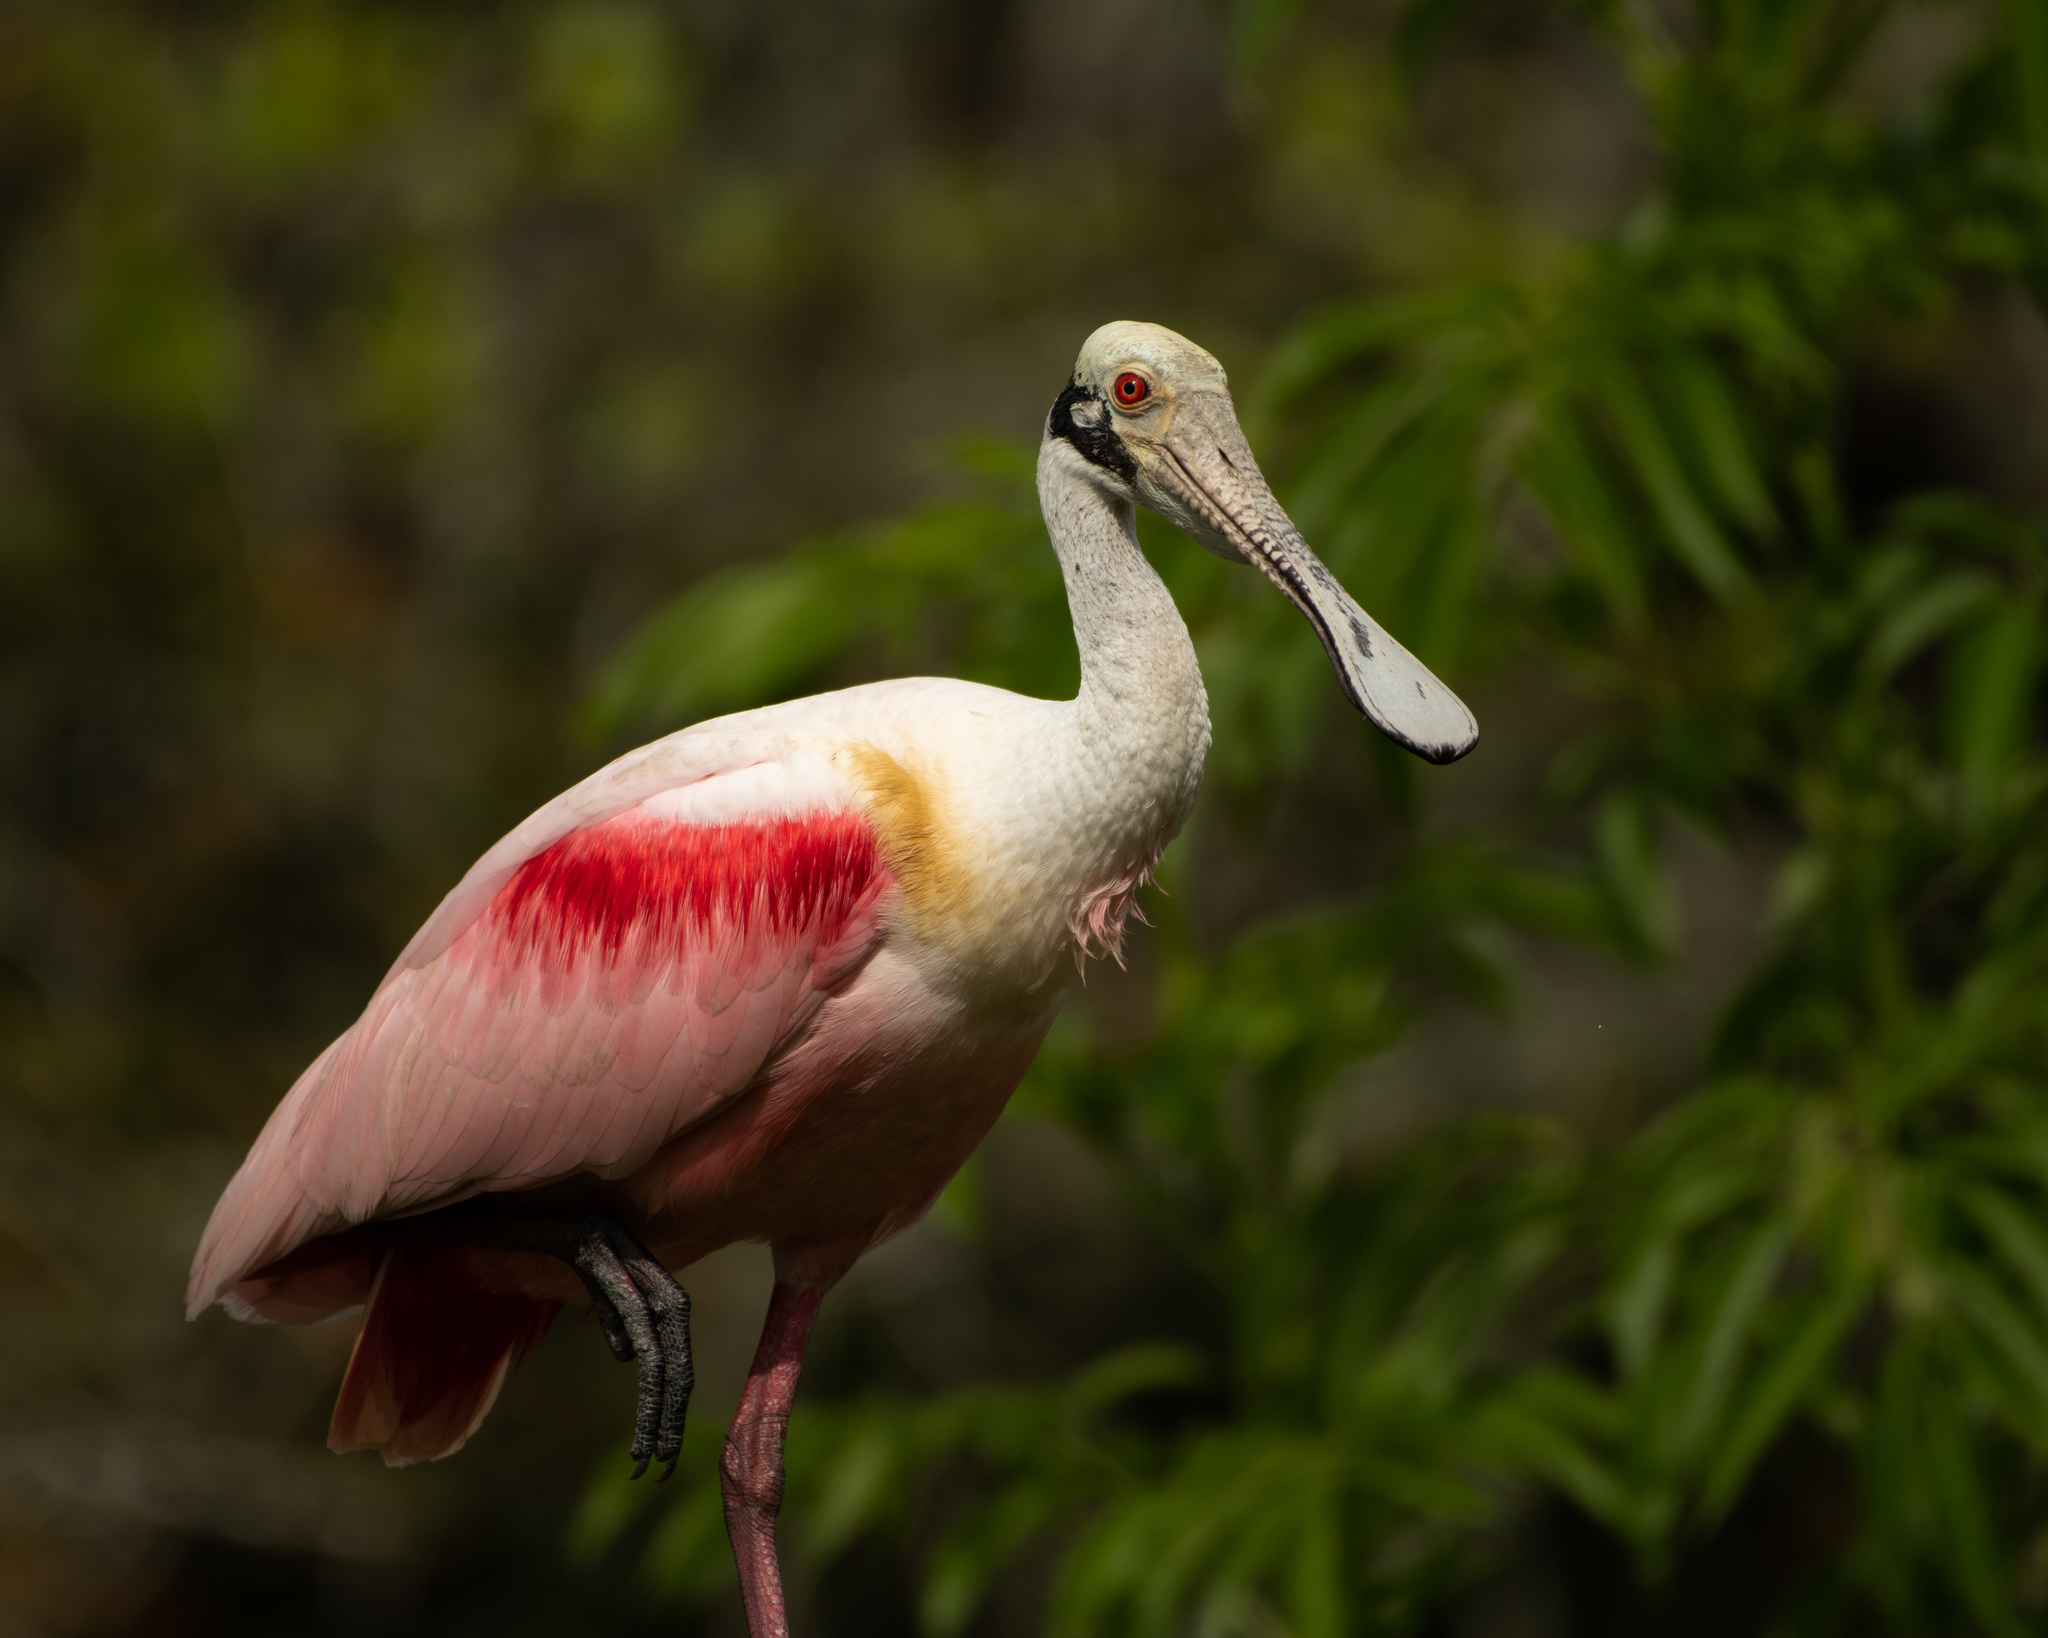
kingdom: Animalia
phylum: Chordata
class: Aves
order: Pelecaniformes
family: Threskiornithidae
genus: Platalea
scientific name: Platalea ajaja
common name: Roseate spoonbill
